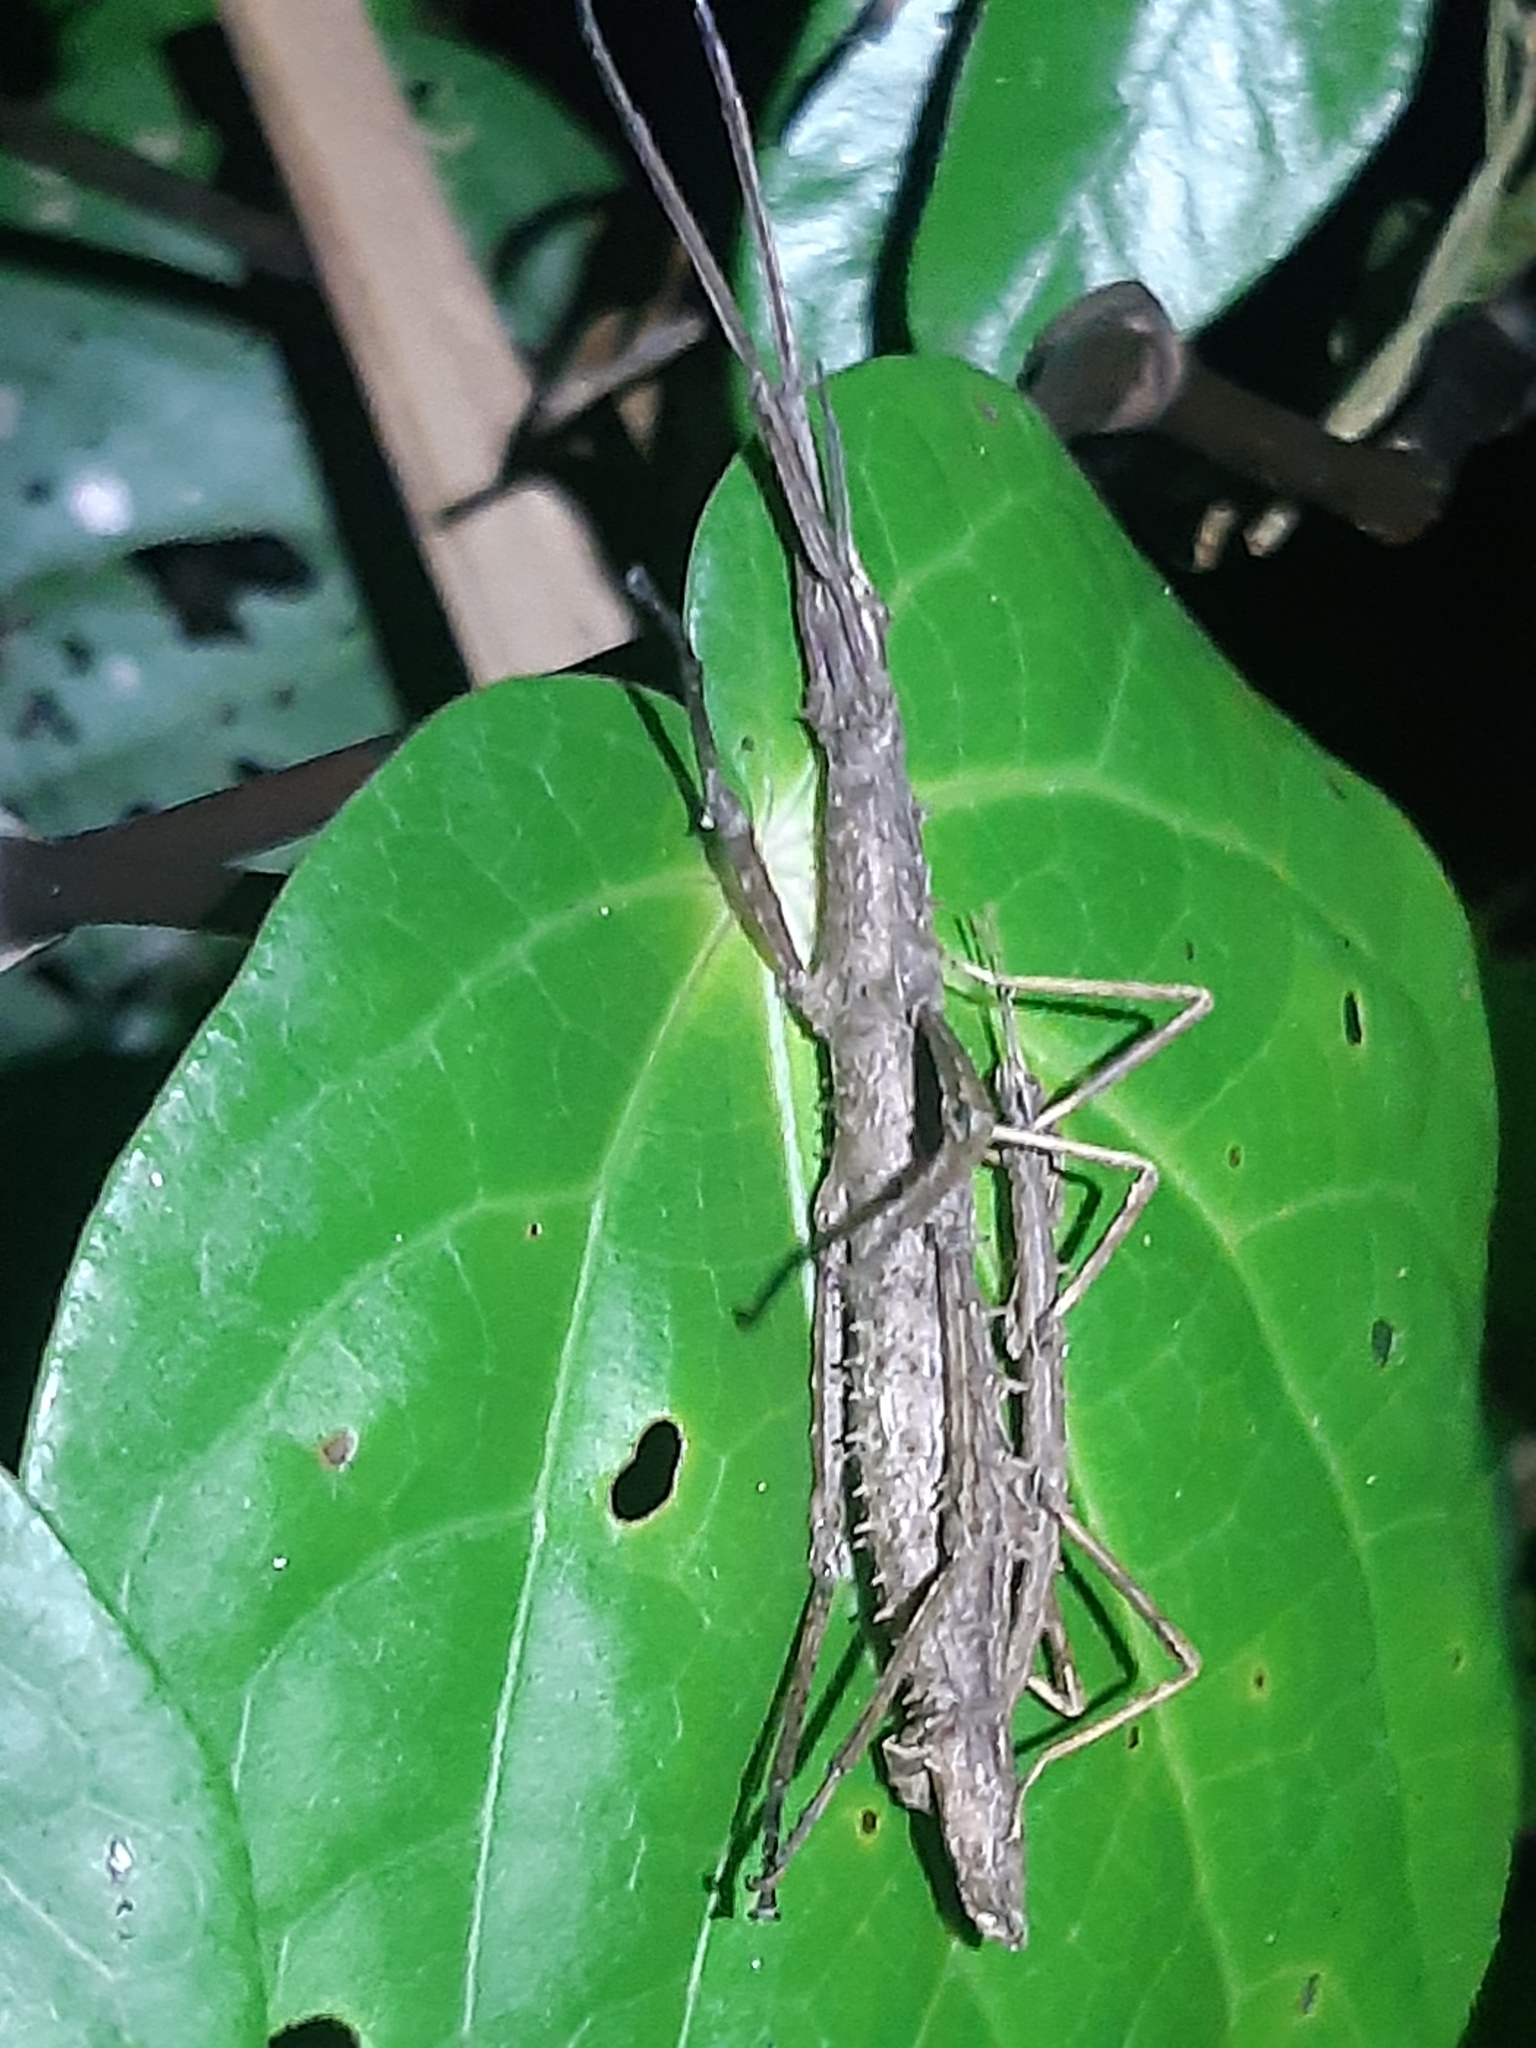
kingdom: Animalia
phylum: Arthropoda
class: Insecta
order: Phasmida
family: Phasmatidae
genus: Micrarchus
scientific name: Micrarchus hystriculeus
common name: The lesser spiny stick insect
